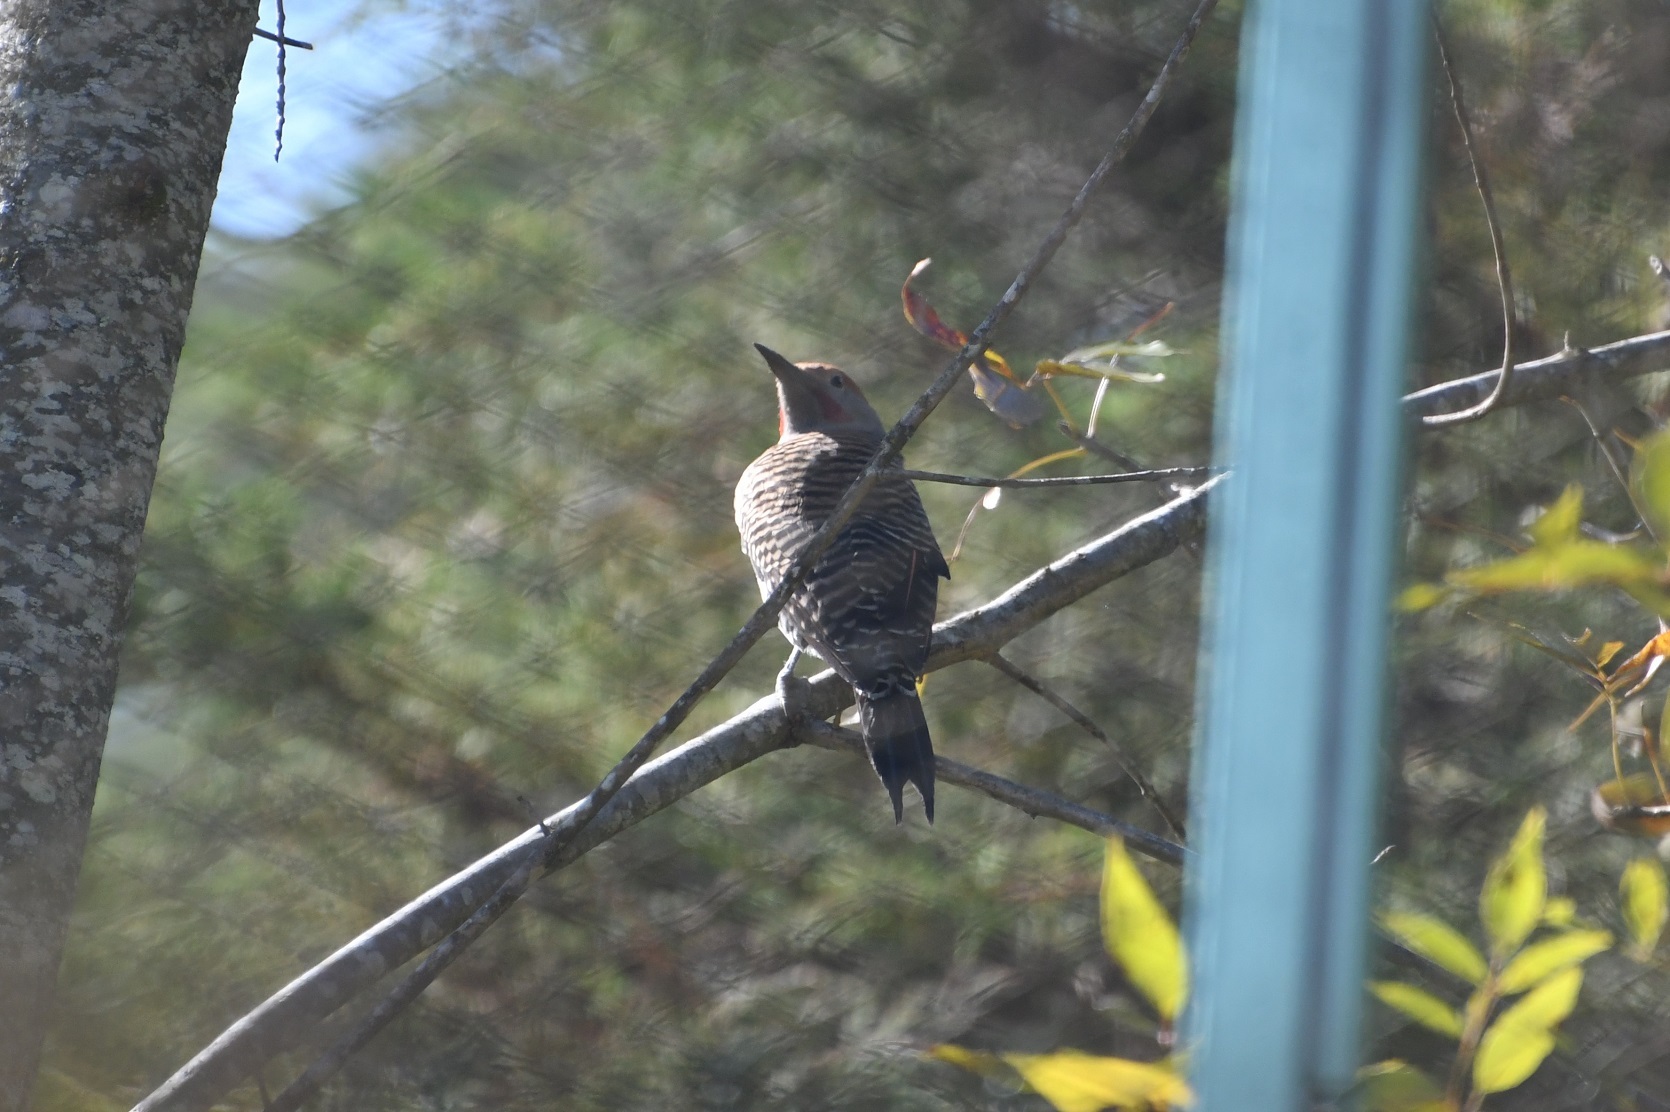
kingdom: Animalia
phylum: Chordata
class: Aves
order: Piciformes
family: Picidae
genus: Colaptes
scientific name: Colaptes auratus
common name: Northern flicker
